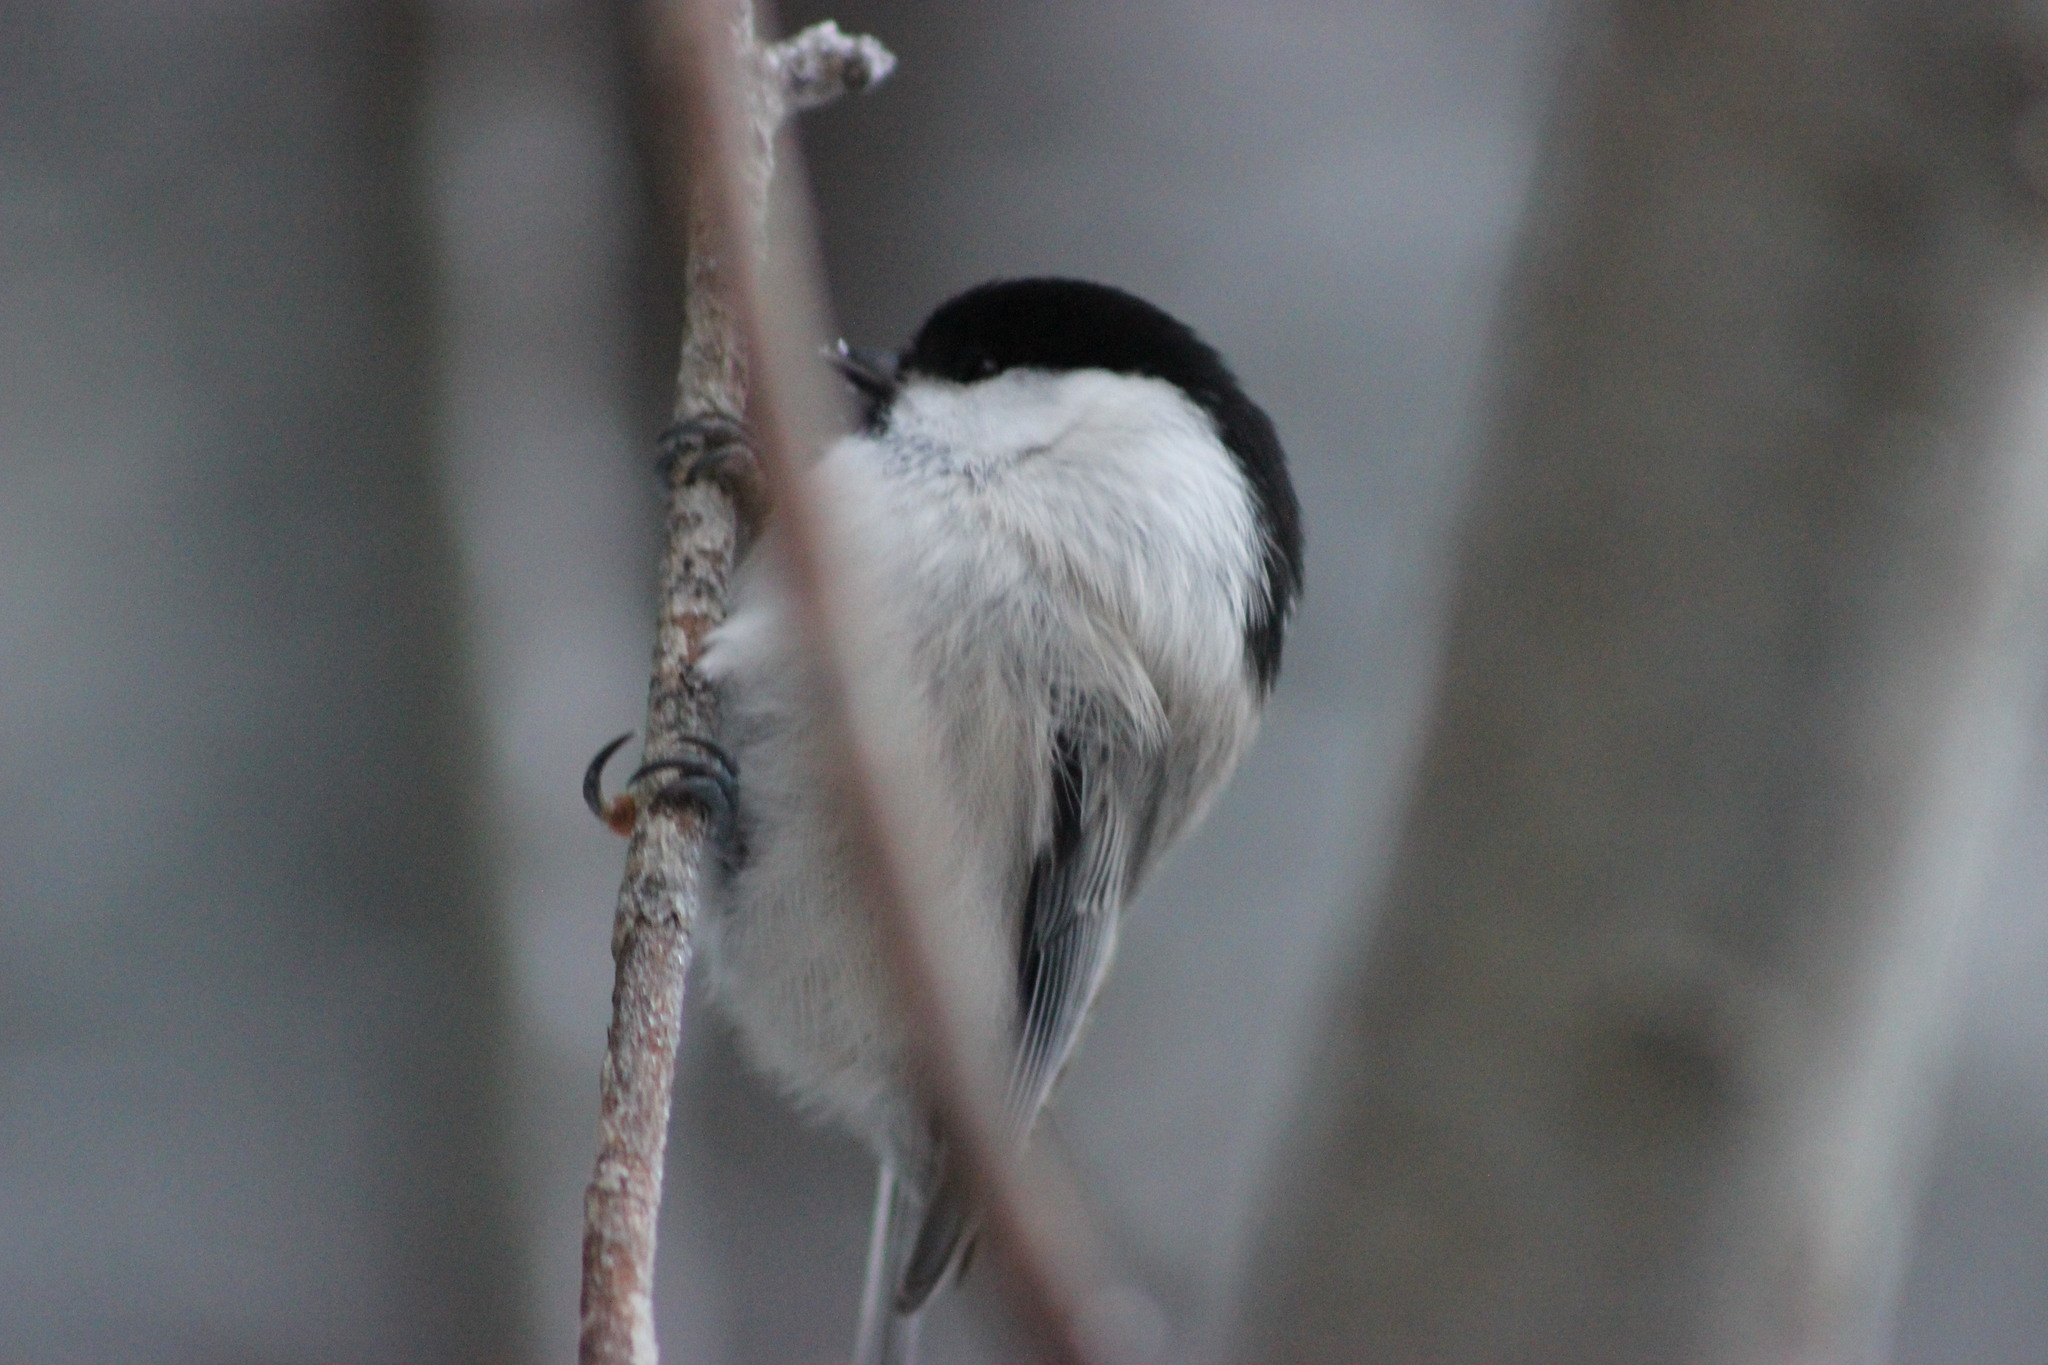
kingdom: Animalia
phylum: Chordata
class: Aves
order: Passeriformes
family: Paridae
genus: Poecile
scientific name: Poecile montanus
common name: Willow tit
